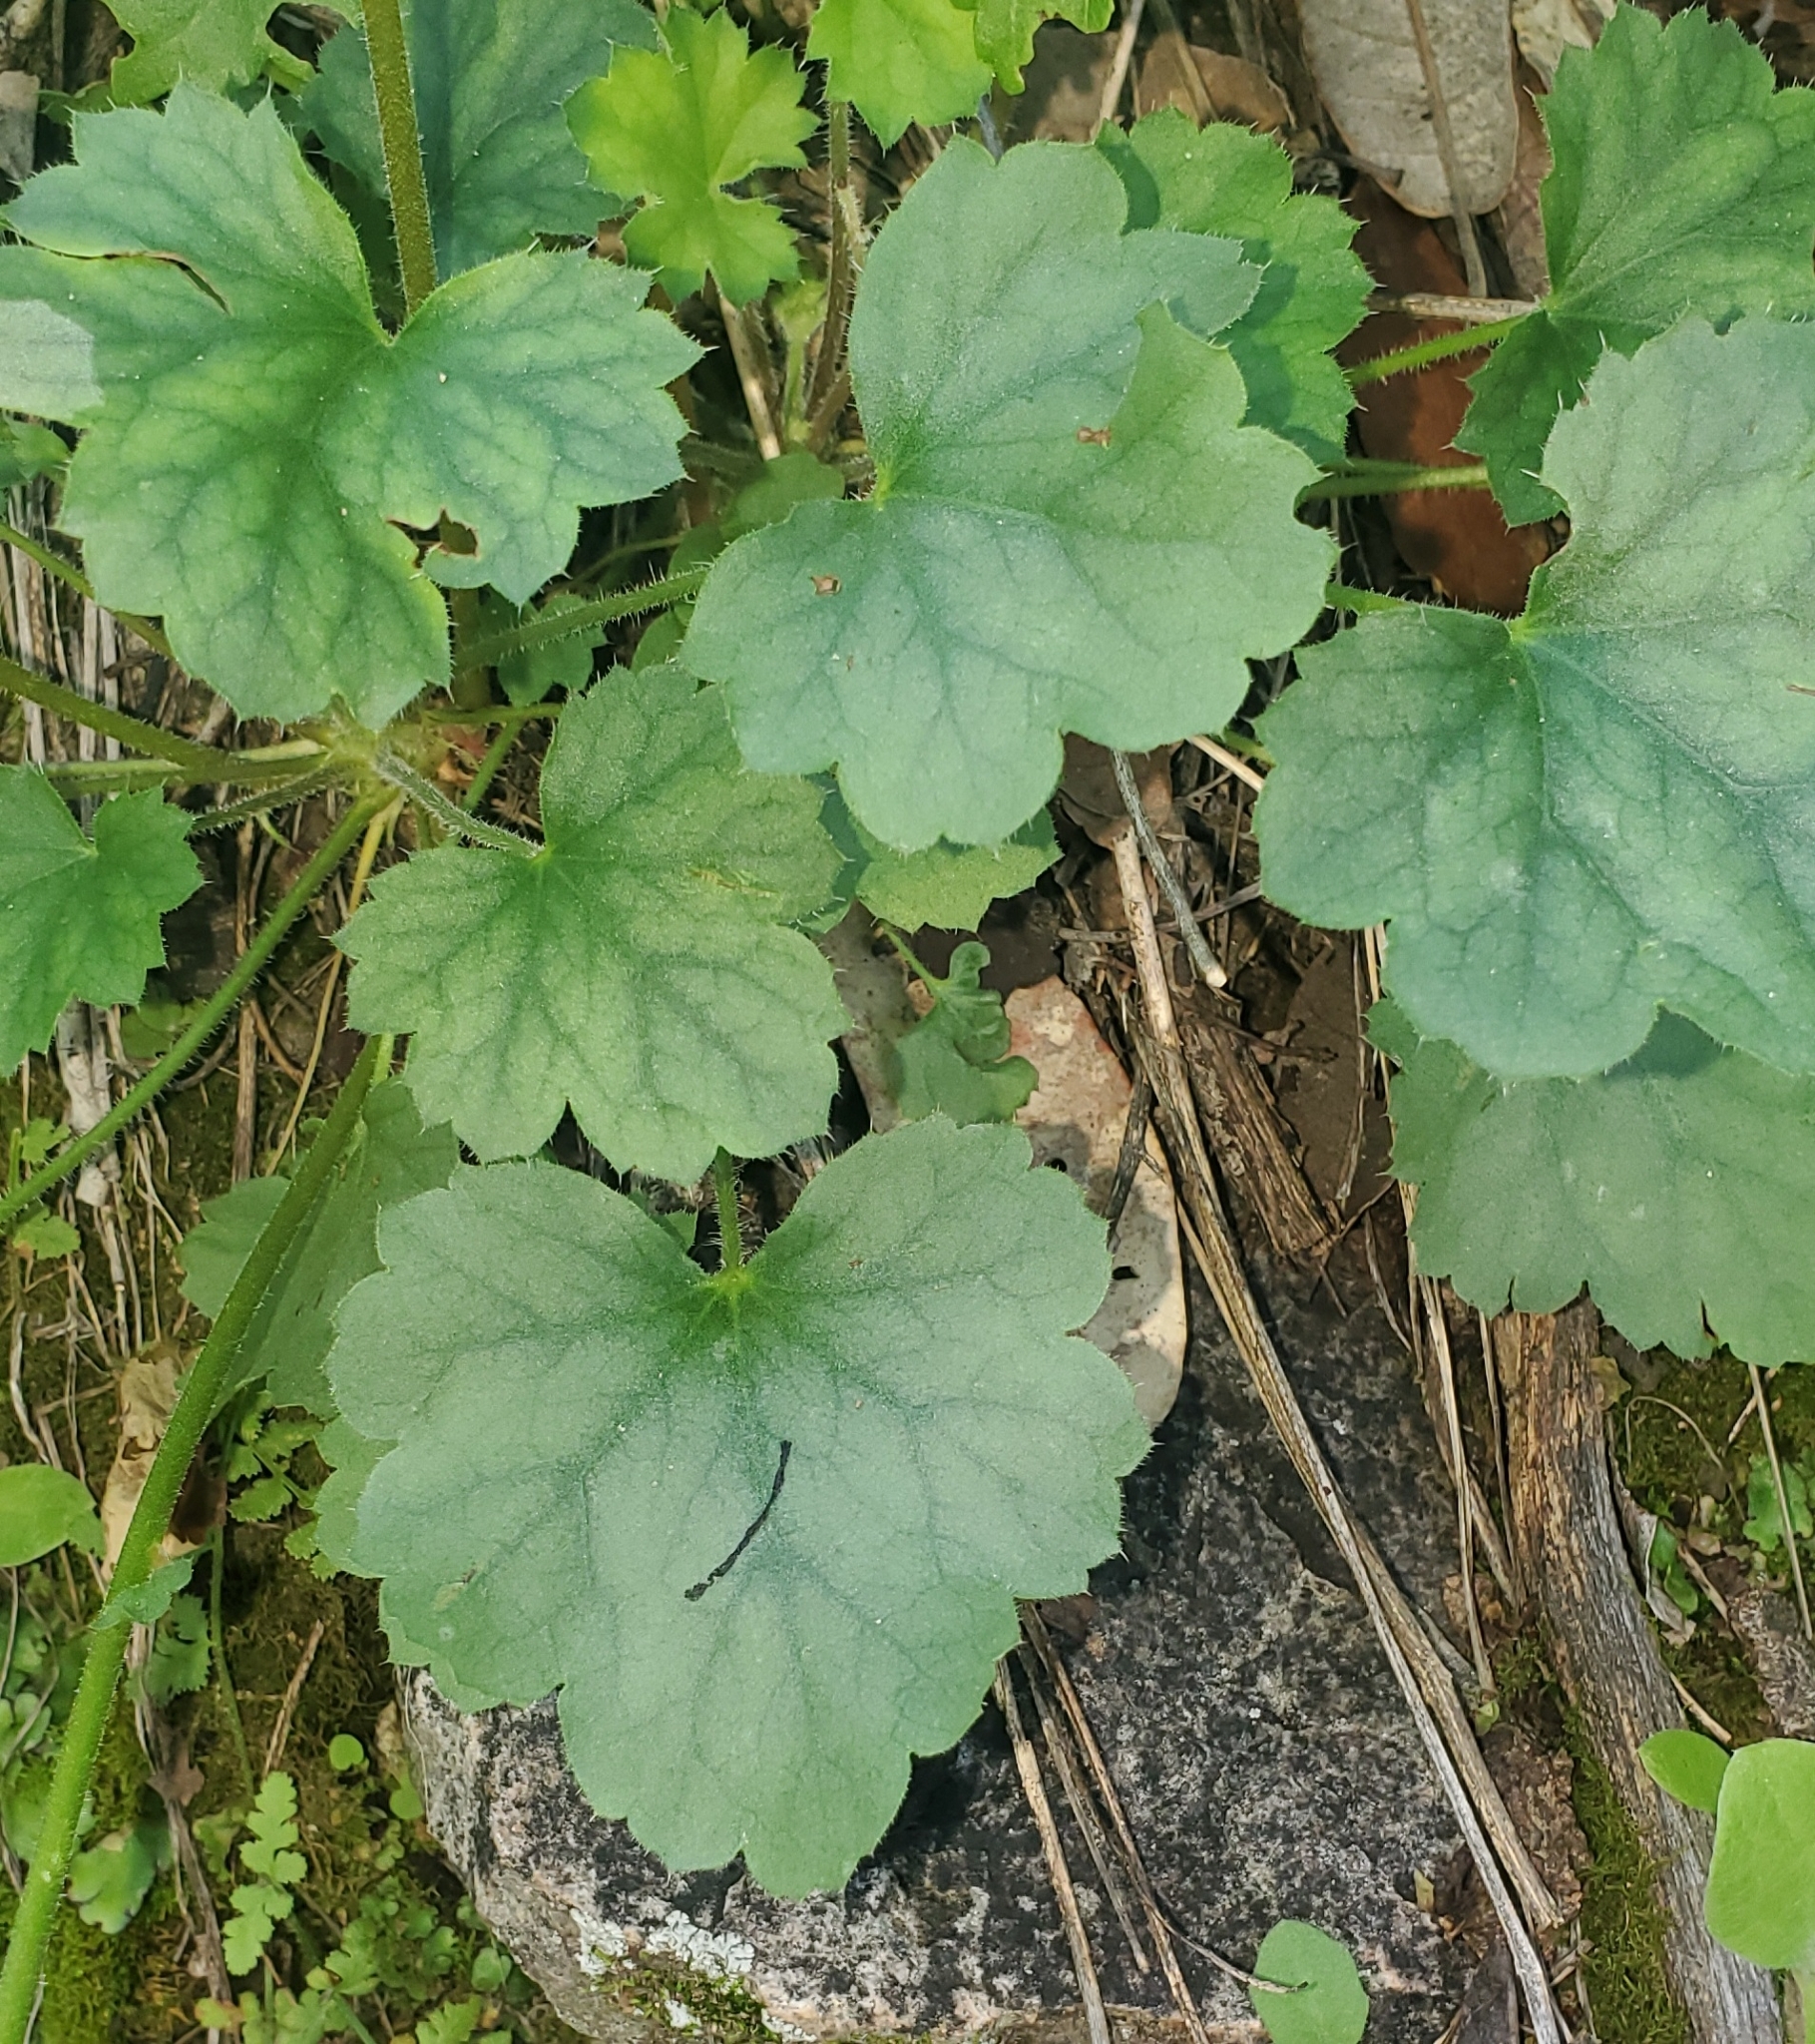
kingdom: Plantae
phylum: Tracheophyta
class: Magnoliopsida
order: Saxifragales
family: Saxifragaceae
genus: Heuchera
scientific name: Heuchera sanguinea
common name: Coralbells
